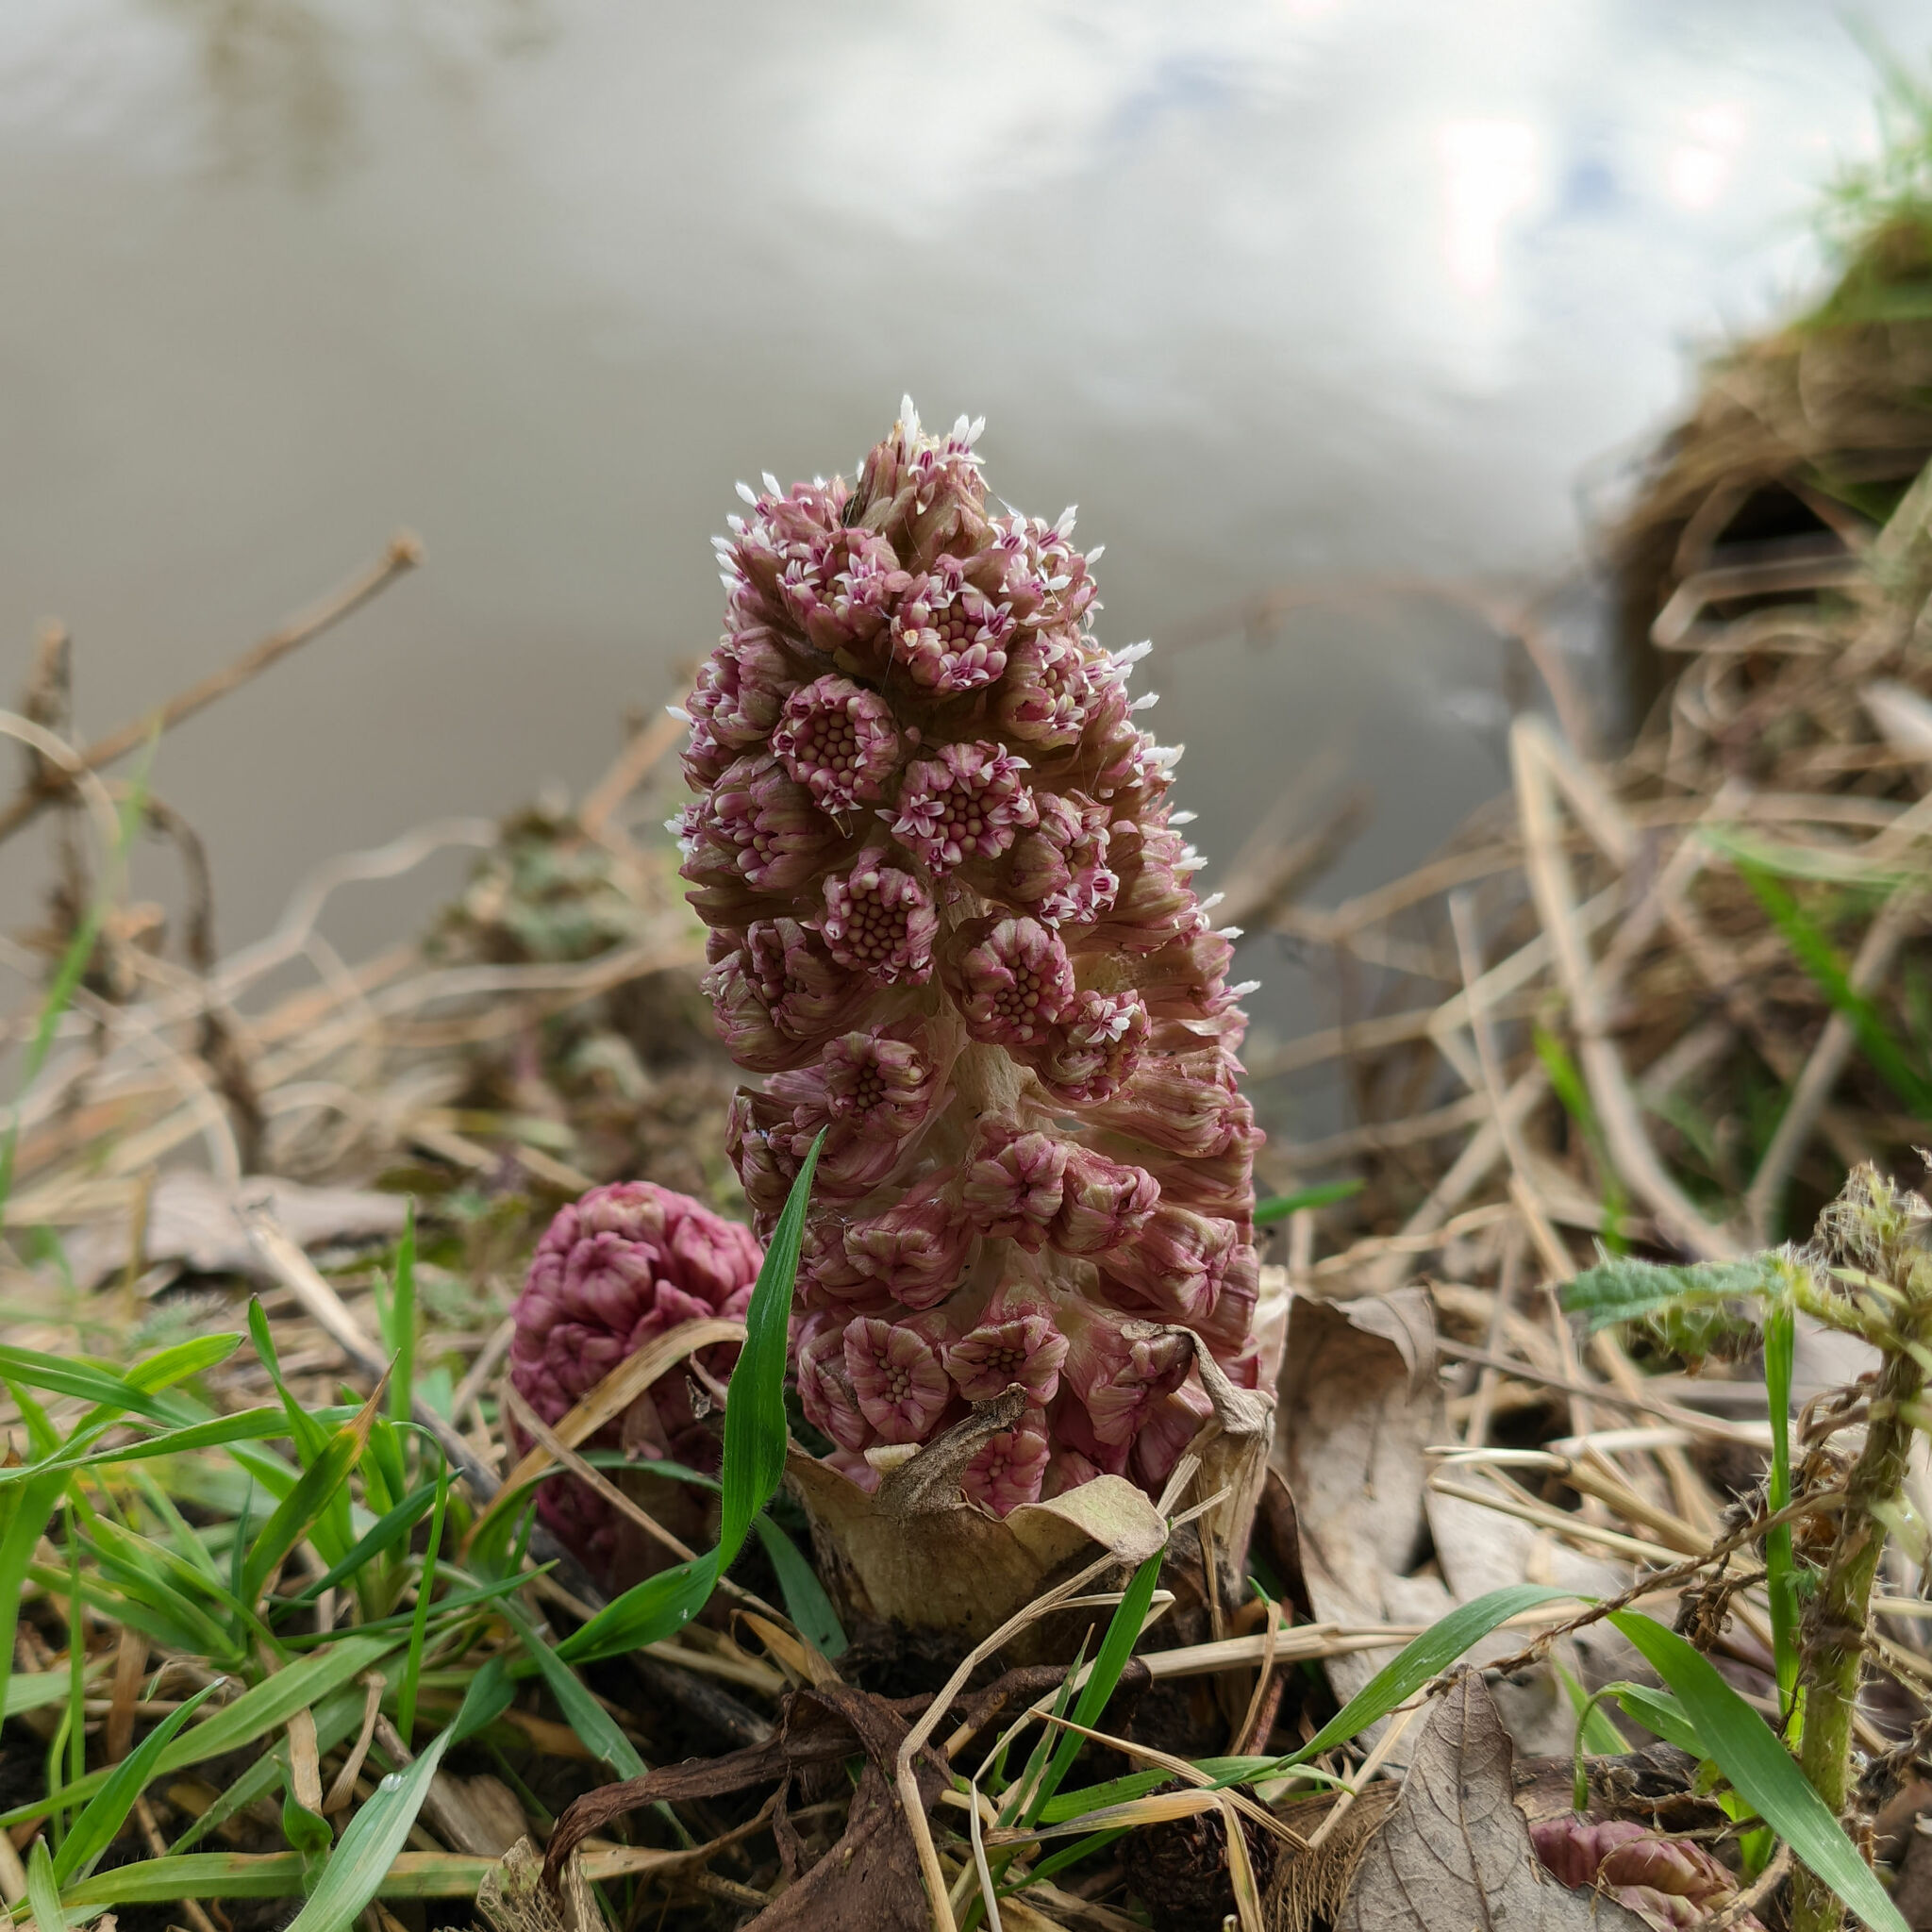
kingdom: Plantae
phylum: Tracheophyta
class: Magnoliopsida
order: Asterales
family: Asteraceae
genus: Petasites
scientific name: Petasites hybridus
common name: Butterbur
